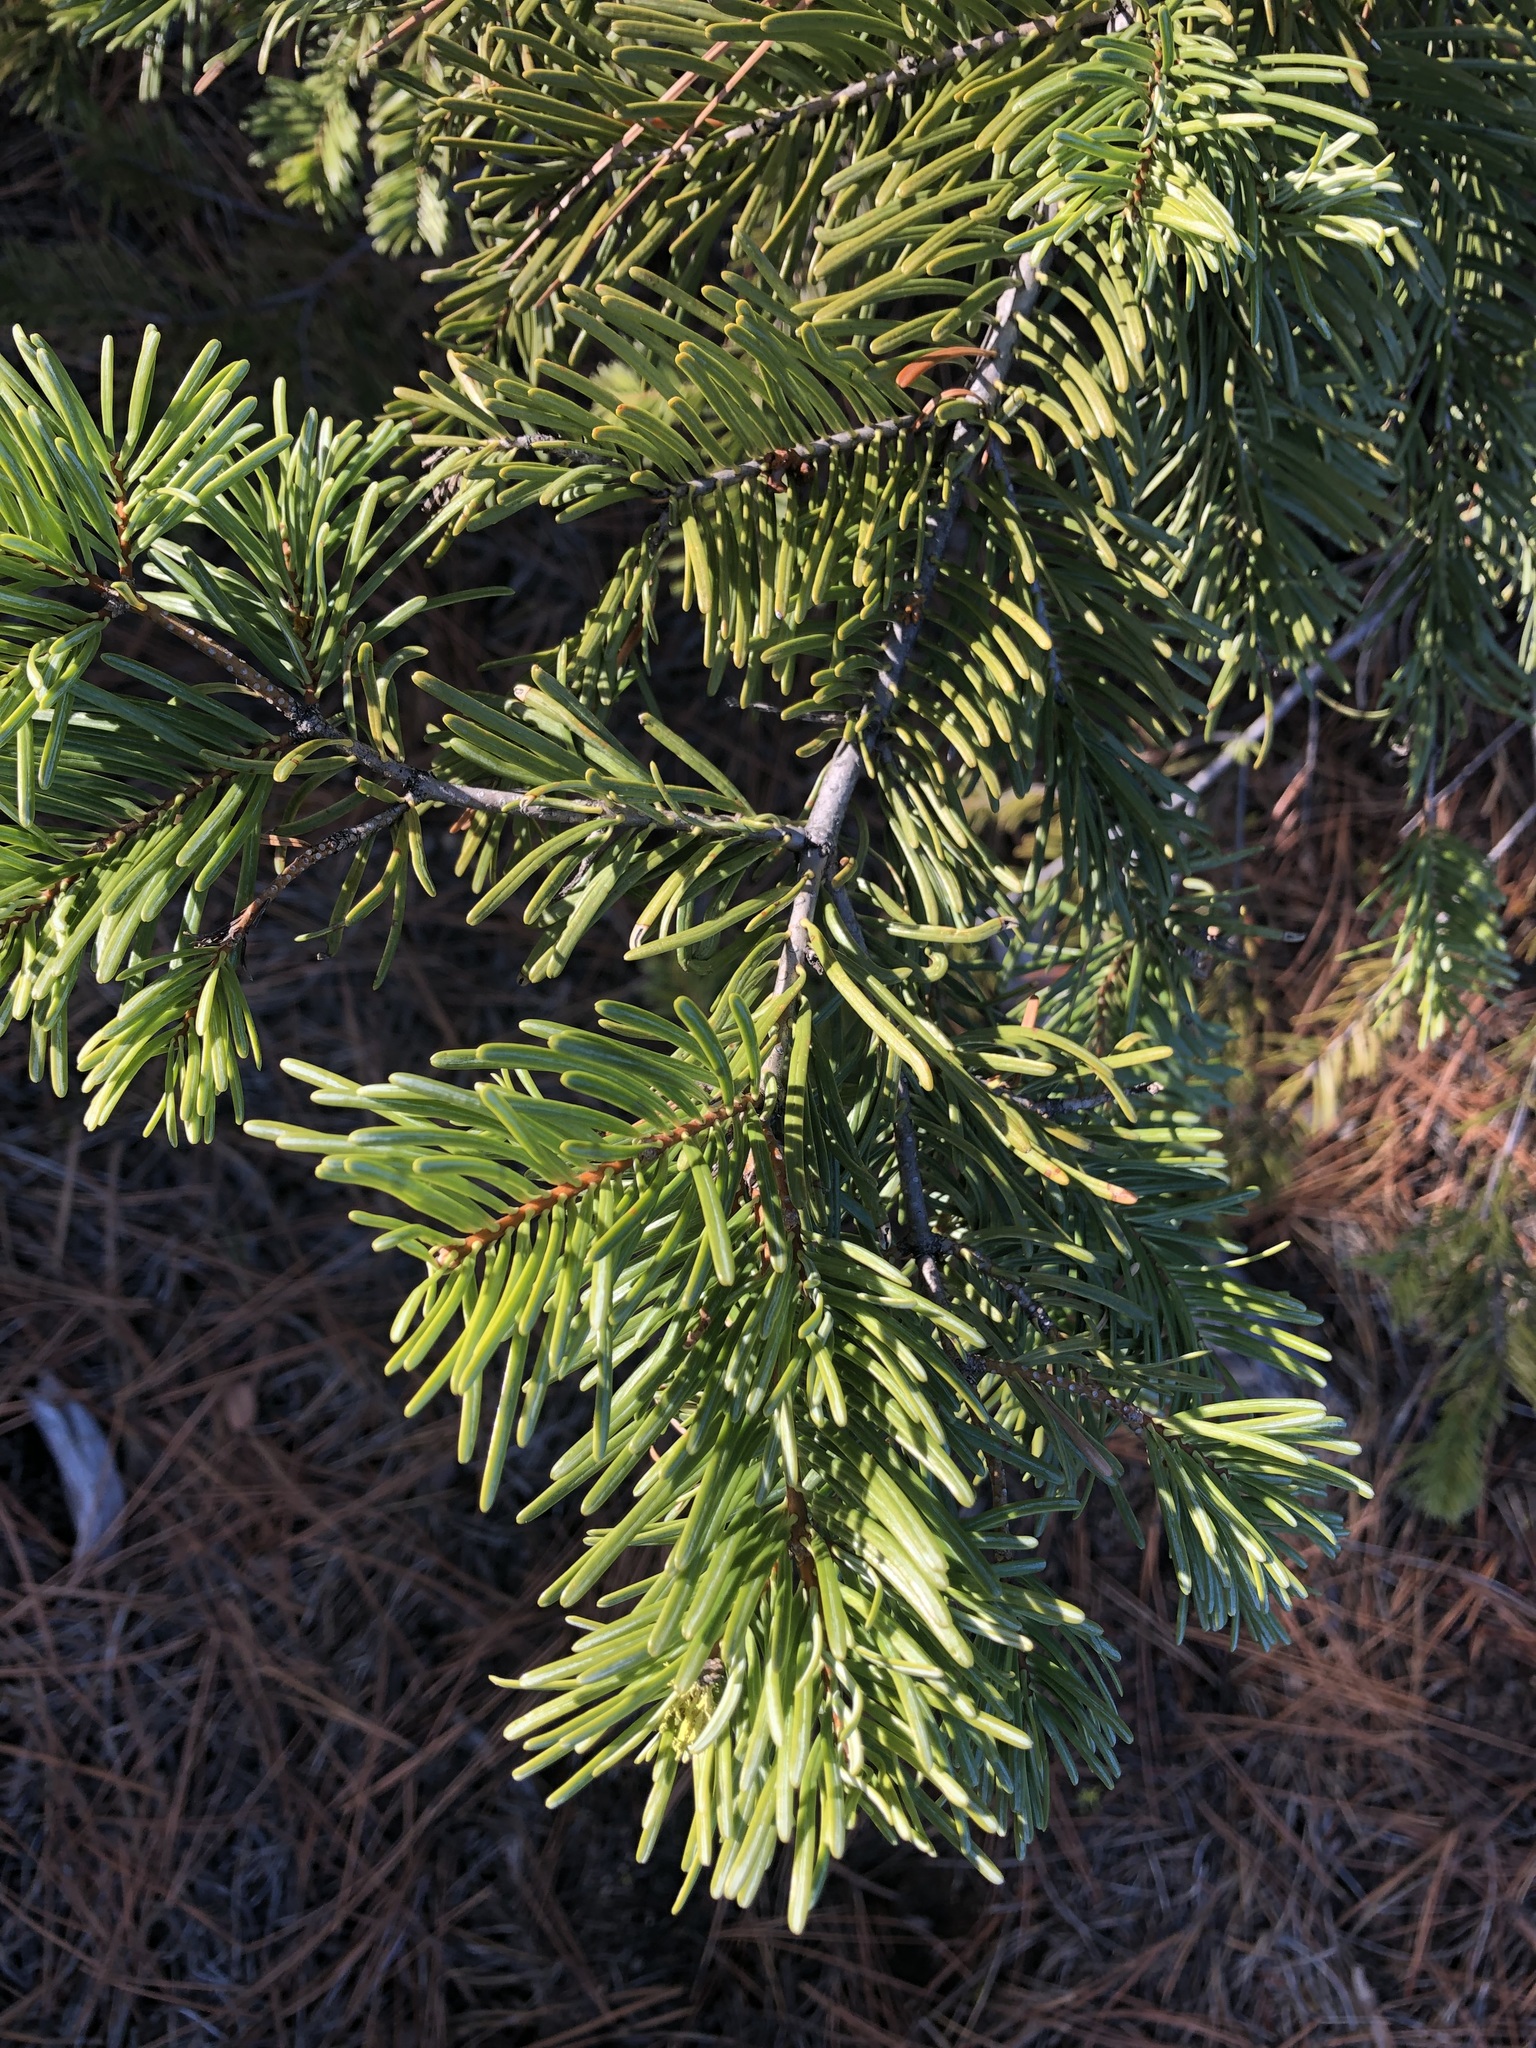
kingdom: Plantae
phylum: Tracheophyta
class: Pinopsida
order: Pinales
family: Pinaceae
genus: Abies
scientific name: Abies concolor
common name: Colorado fir
